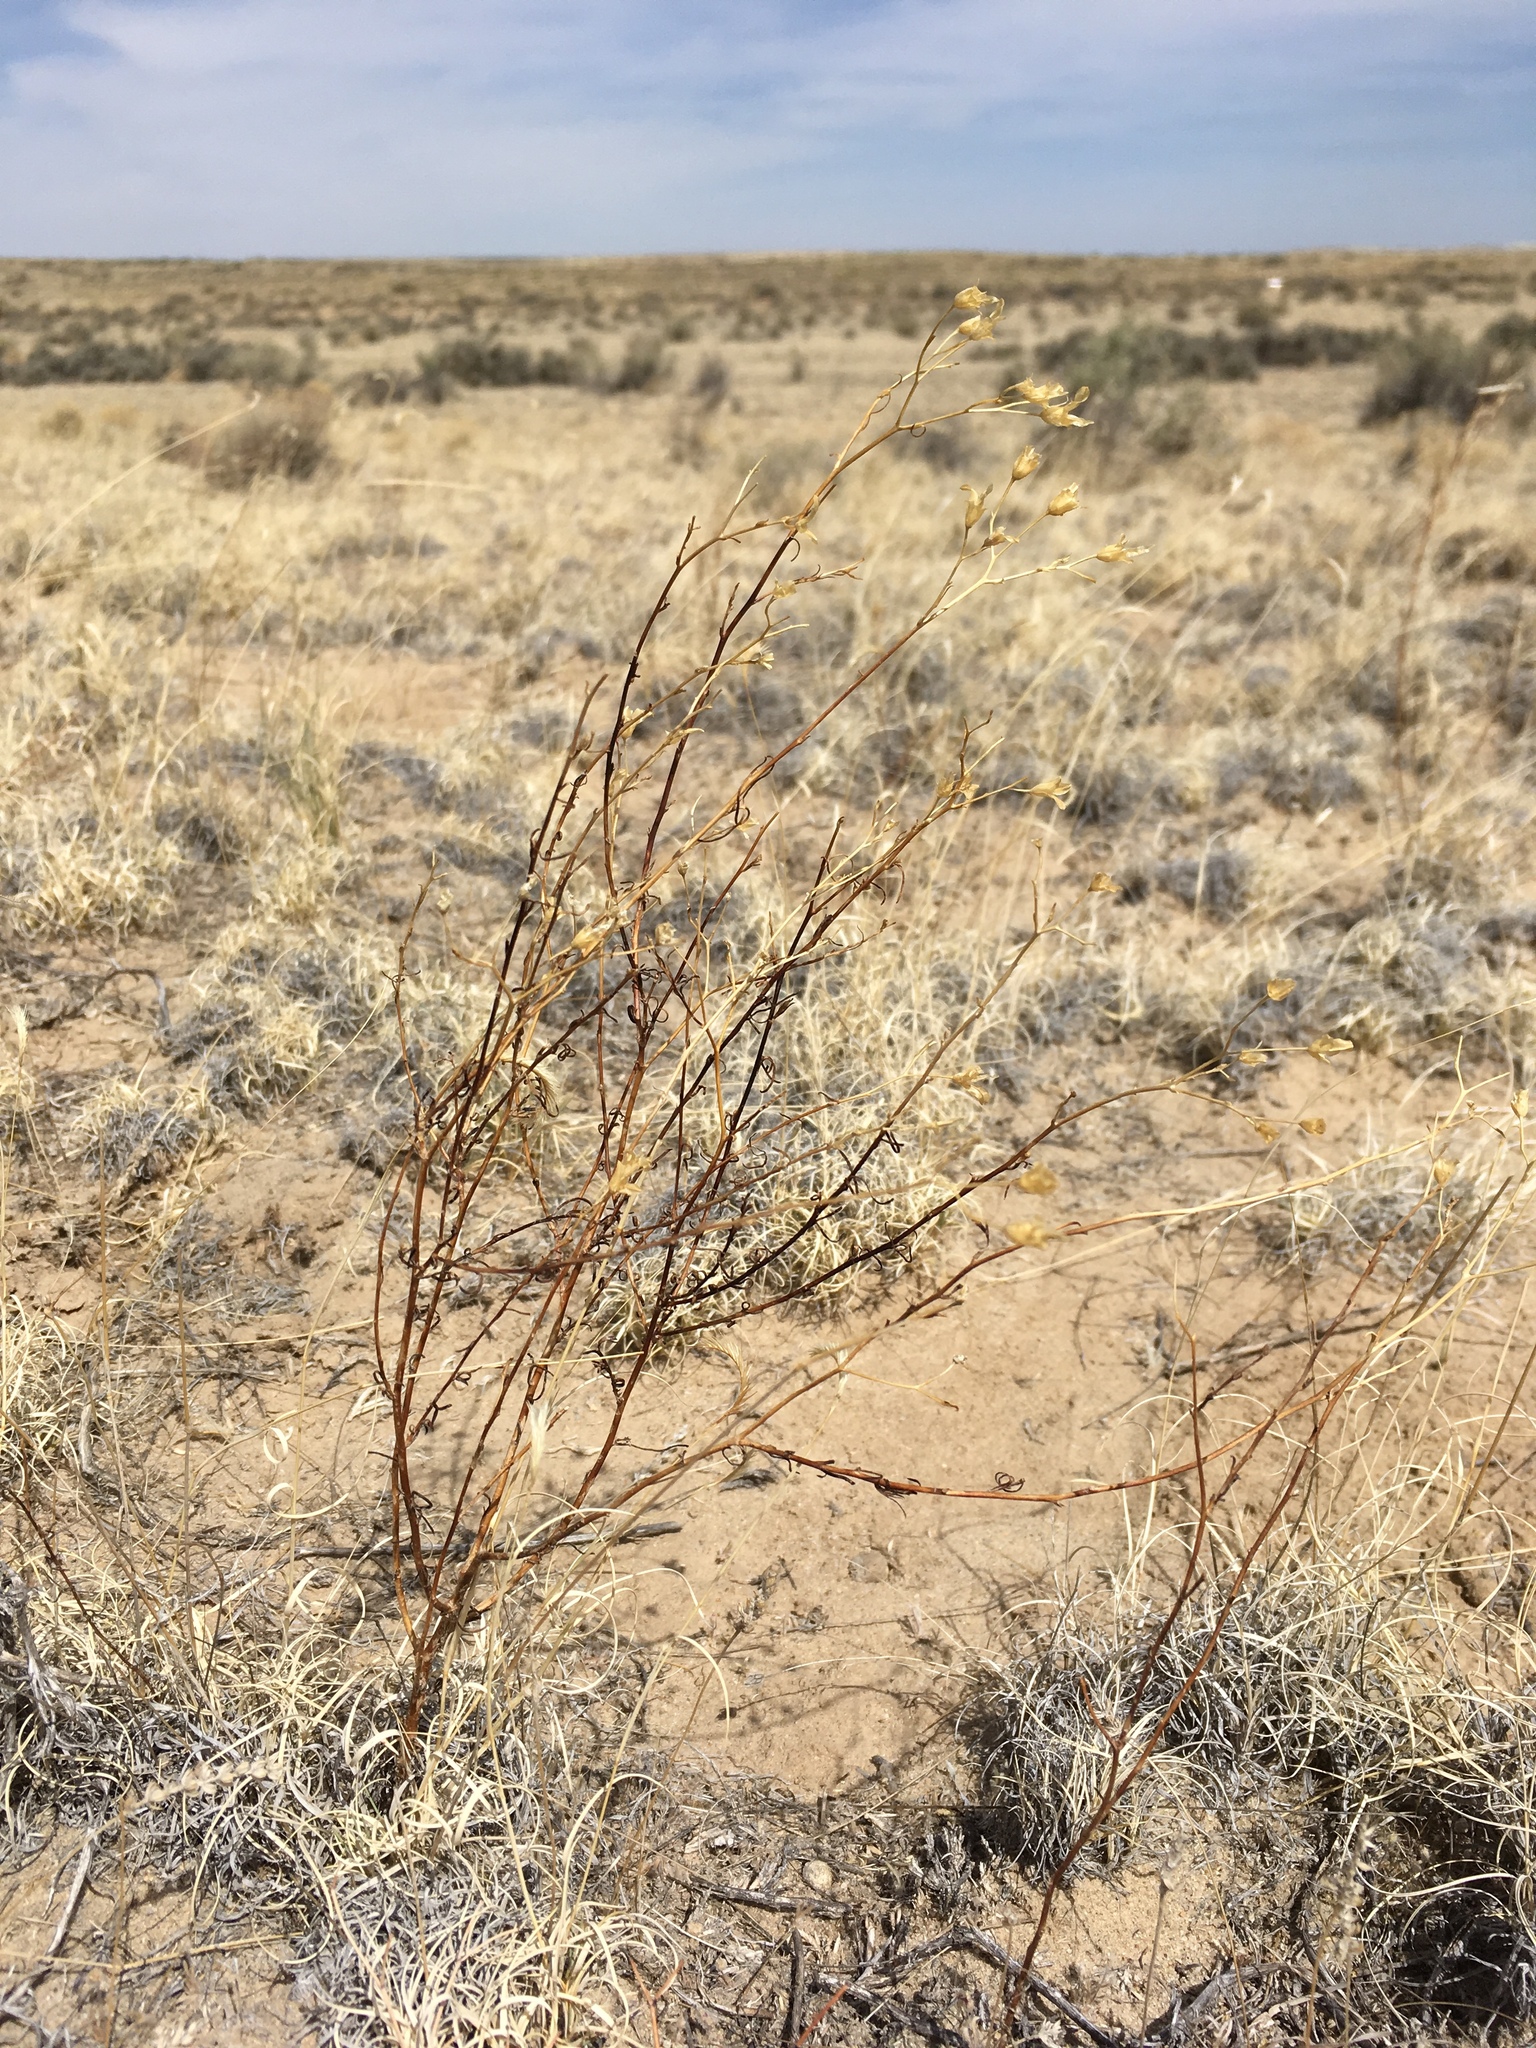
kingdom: Plantae
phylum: Tracheophyta
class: Magnoliopsida
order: Ericales
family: Polemoniaceae
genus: Ipomopsis
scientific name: Ipomopsis longiflora
